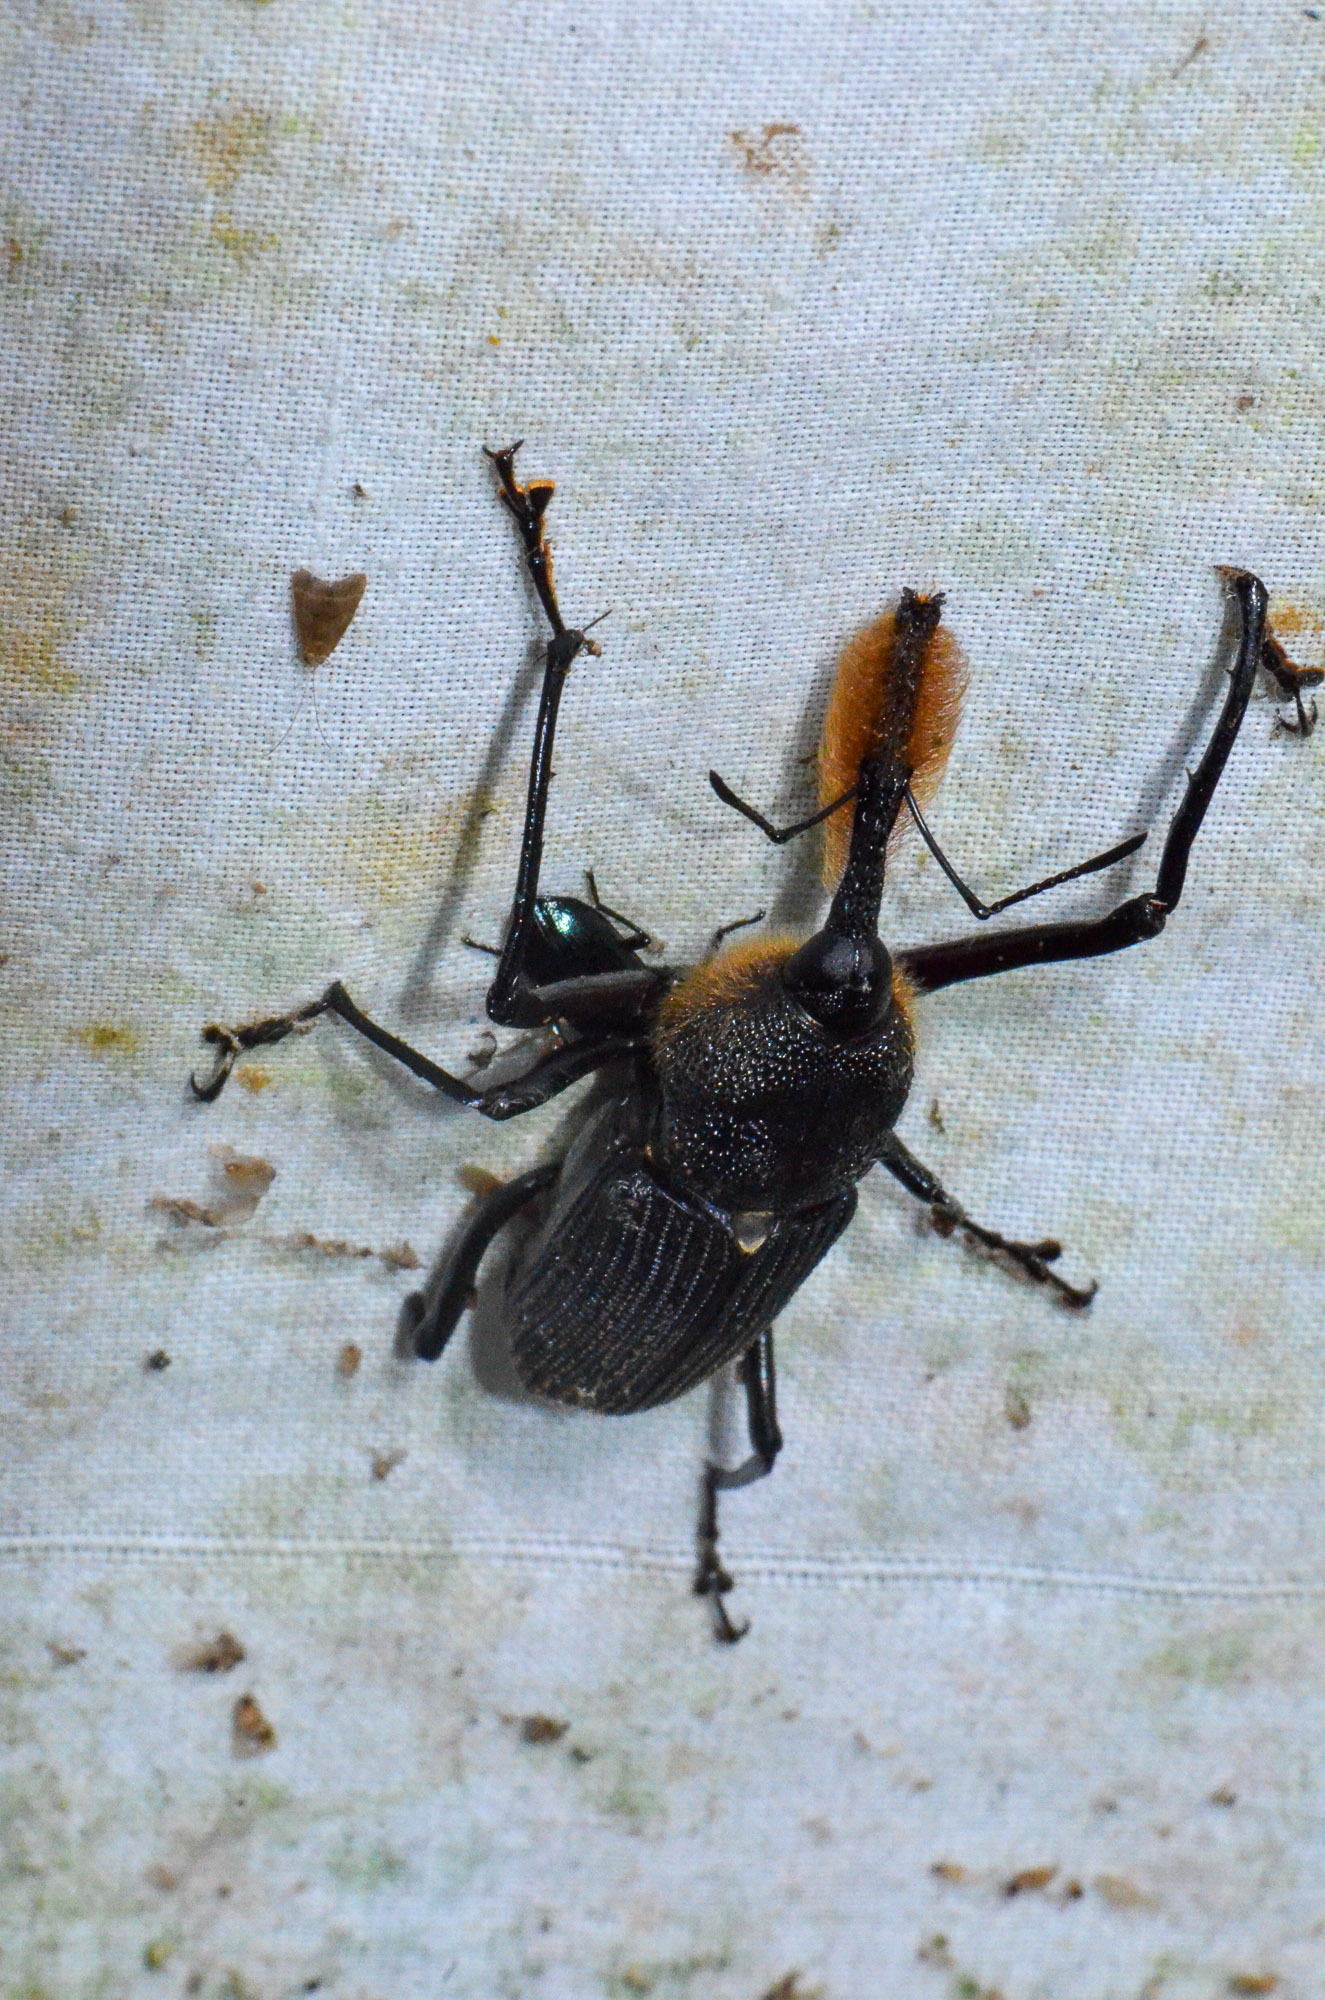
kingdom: Animalia
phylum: Arthropoda
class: Insecta
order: Coleoptera
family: Dryophthoridae
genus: Rhinostomus
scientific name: Rhinostomus barbirostris
